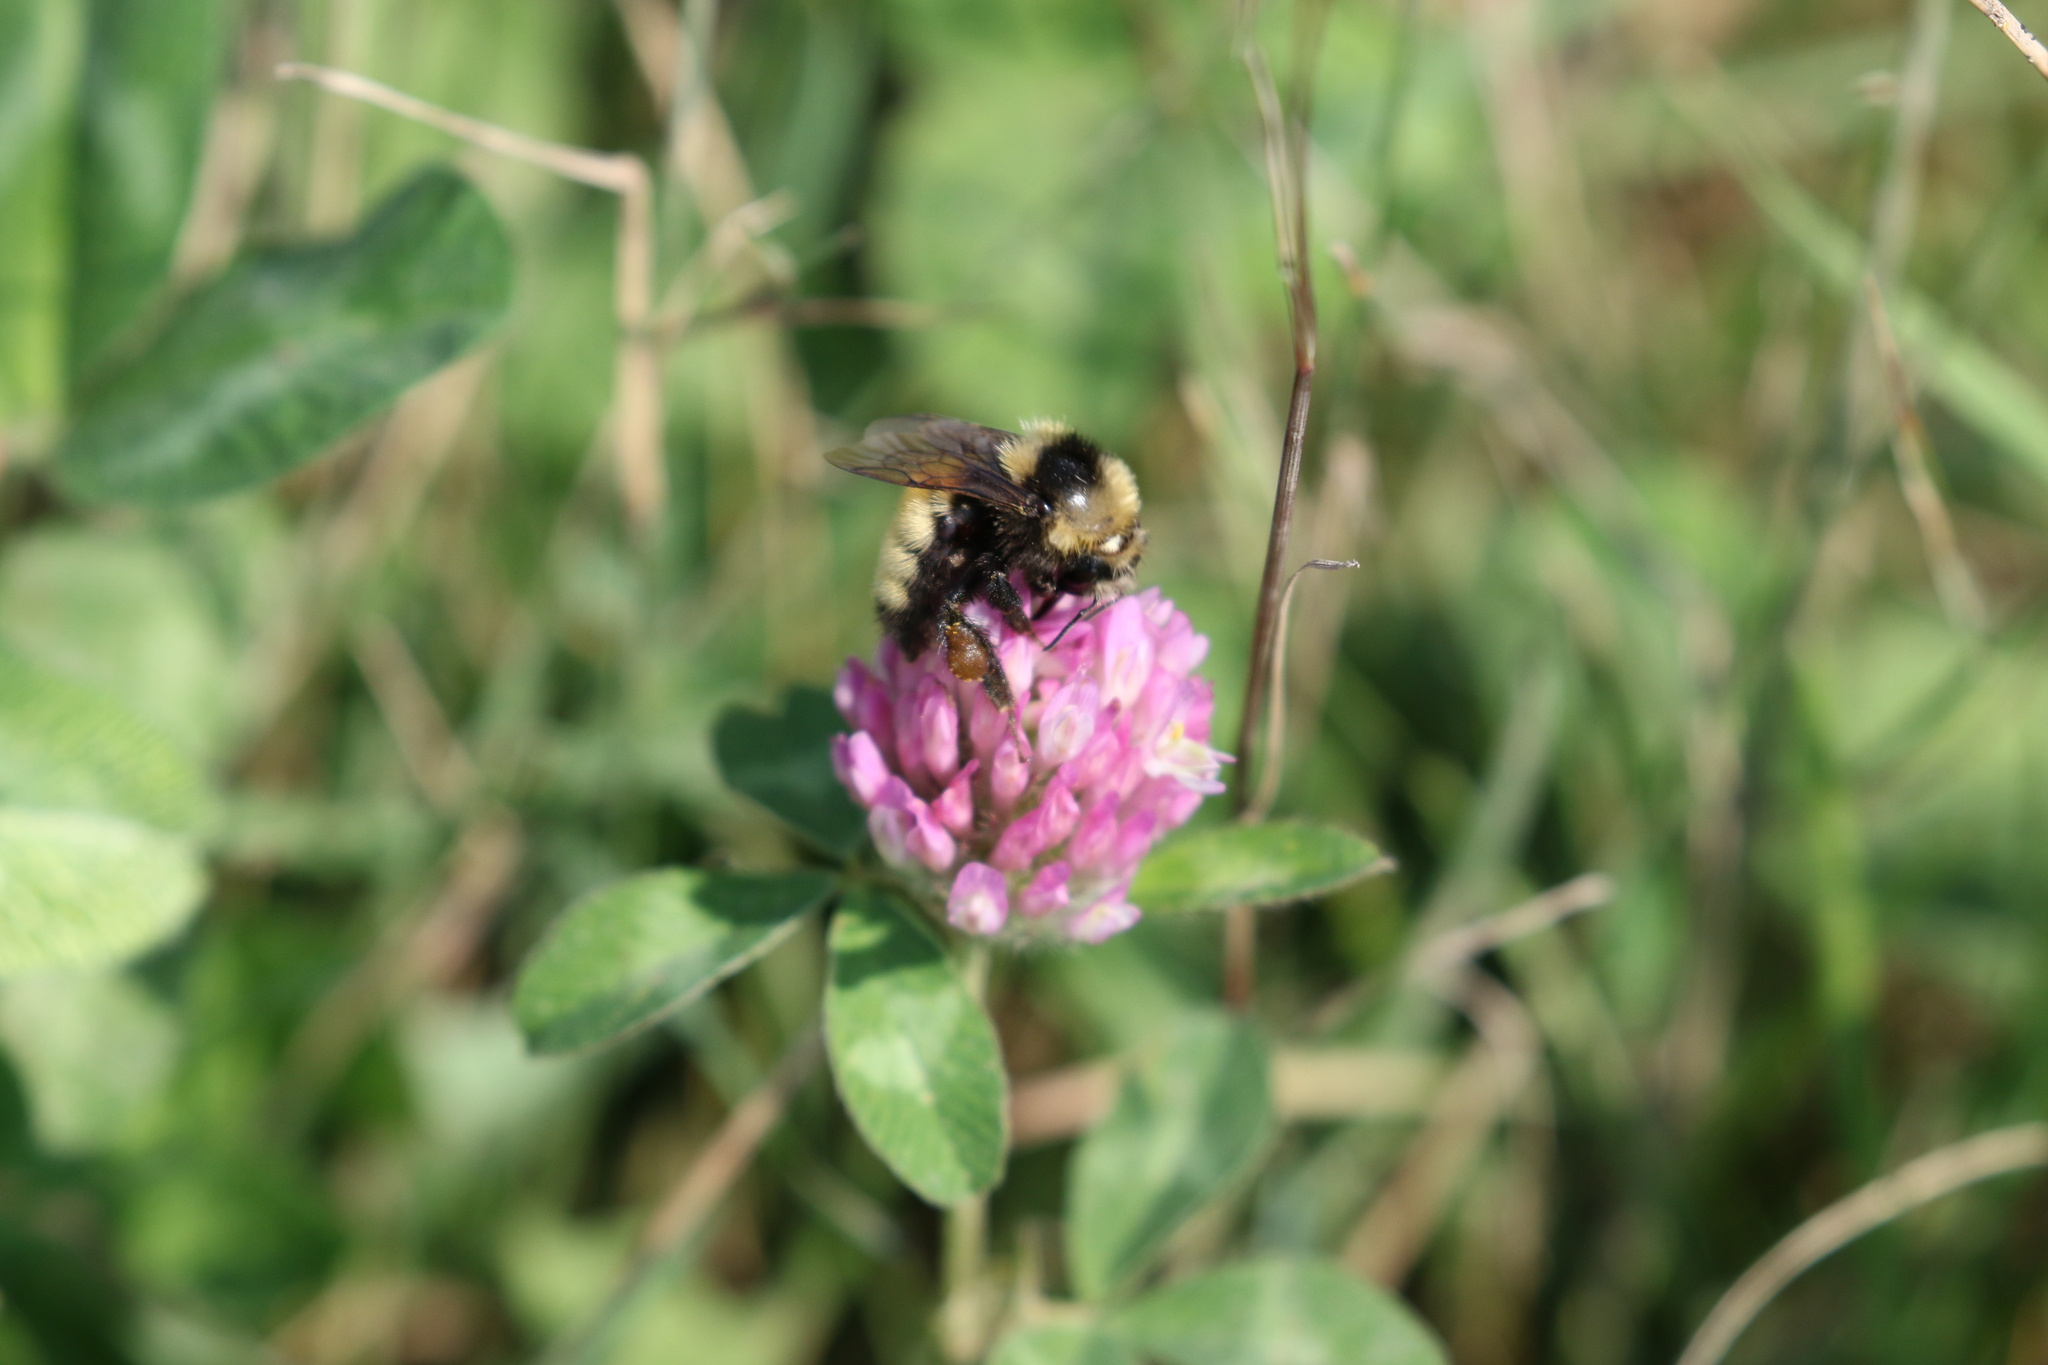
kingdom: Animalia
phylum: Arthropoda
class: Insecta
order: Hymenoptera
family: Apidae
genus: Bombus
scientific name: Bombus borealis
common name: Northern amber bumble bee
